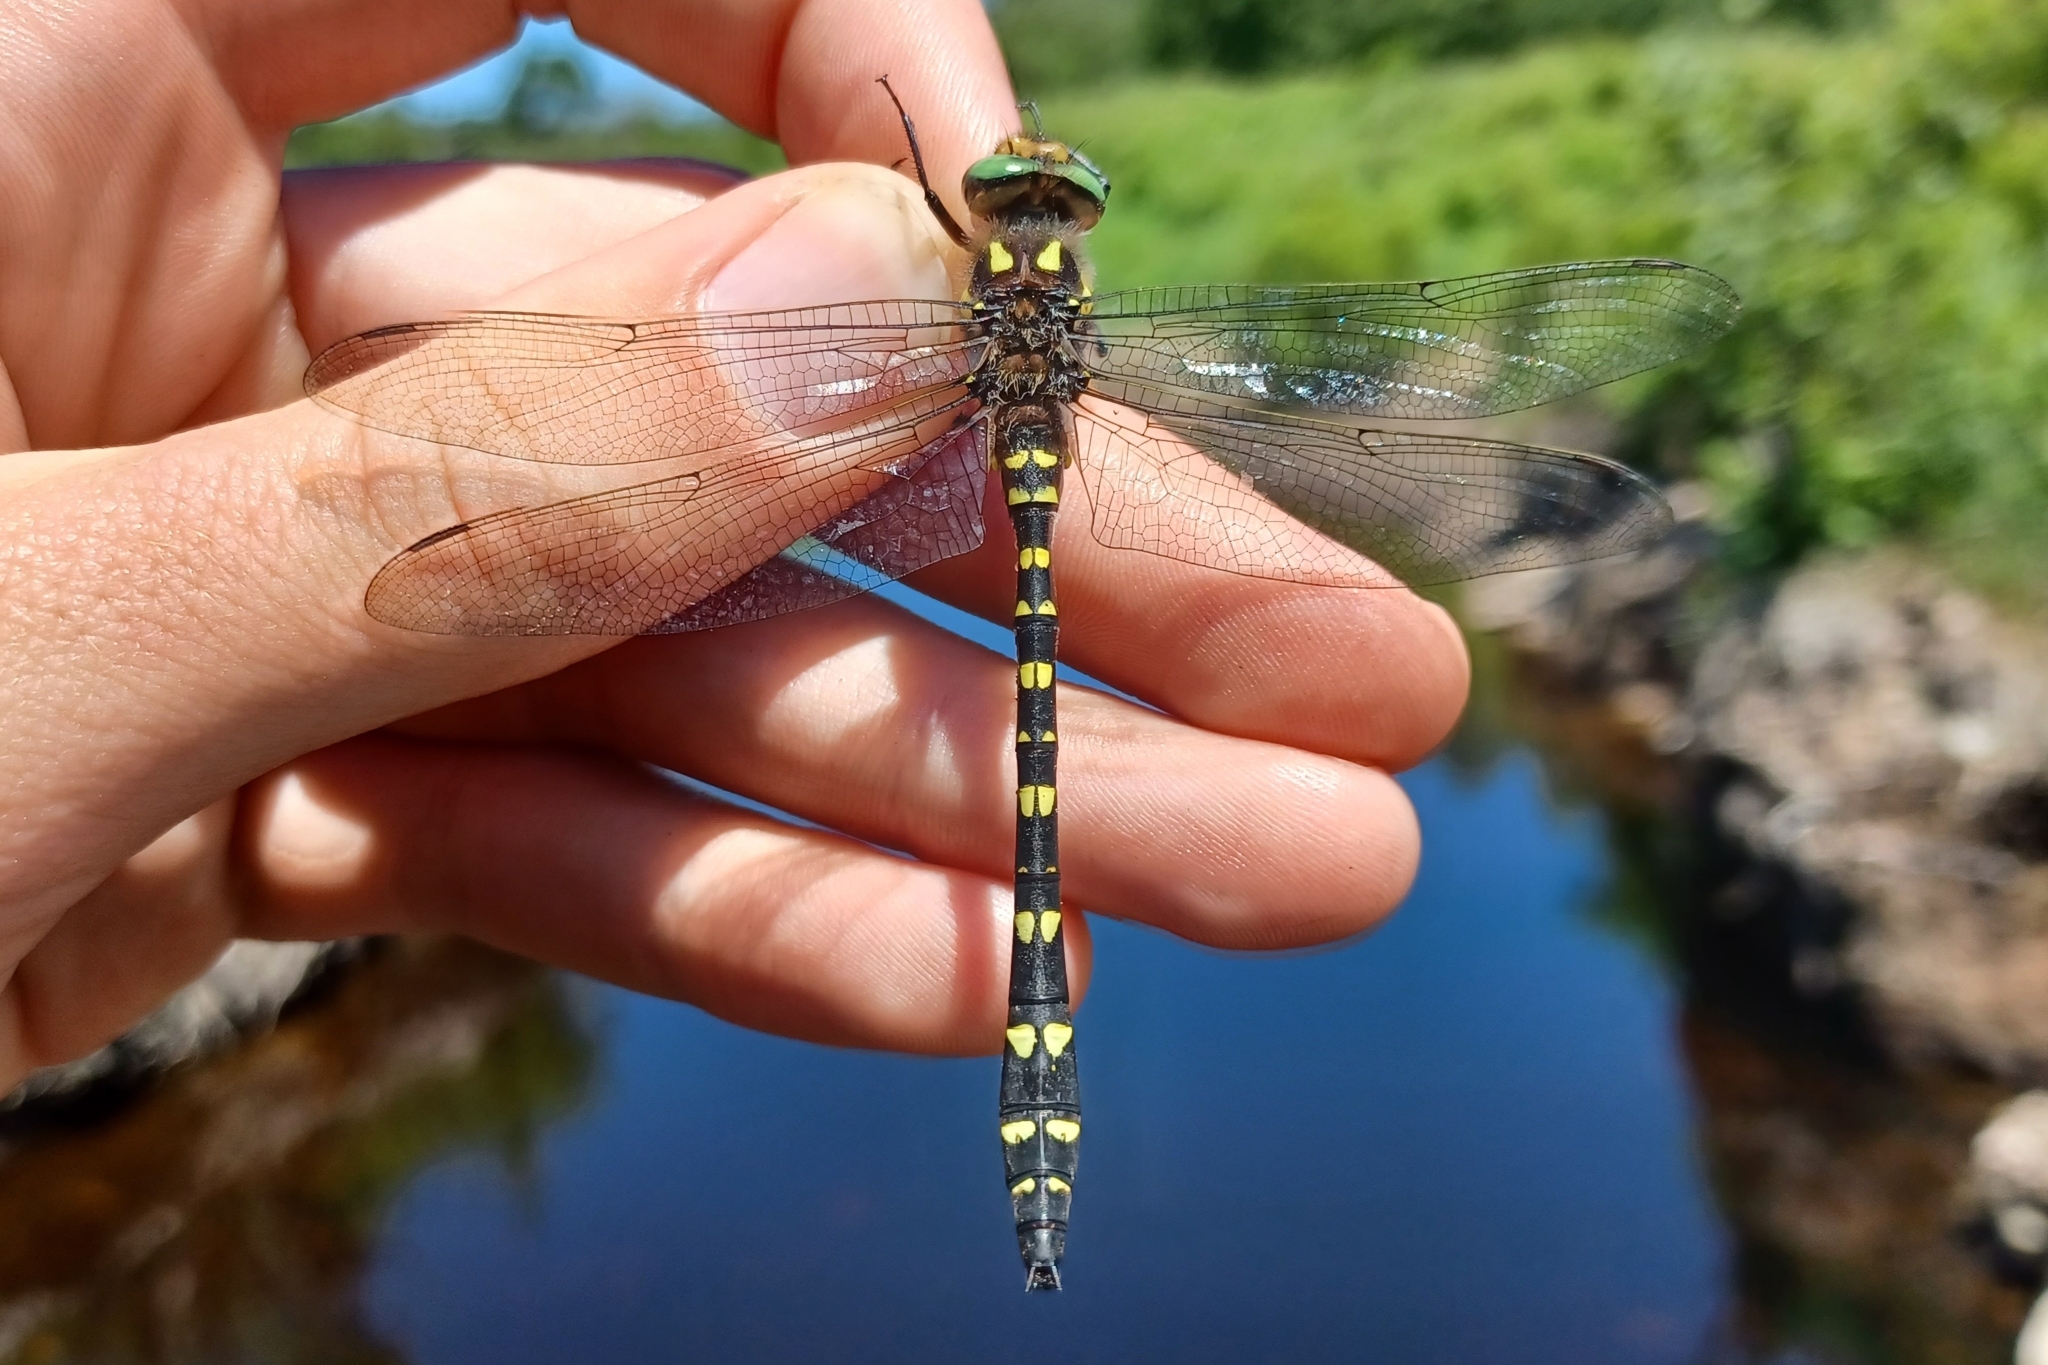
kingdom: Animalia
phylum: Arthropoda
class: Insecta
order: Odonata
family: Cordulegastridae
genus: Cordulegaster
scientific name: Cordulegaster maculata
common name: Twin-spotted spiketail
